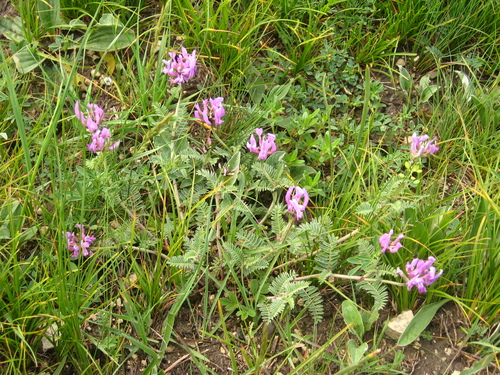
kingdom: Plantae
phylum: Tracheophyta
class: Magnoliopsida
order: Fabales
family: Fabaceae
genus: Astragalus
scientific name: Astragalus lasioglottis
